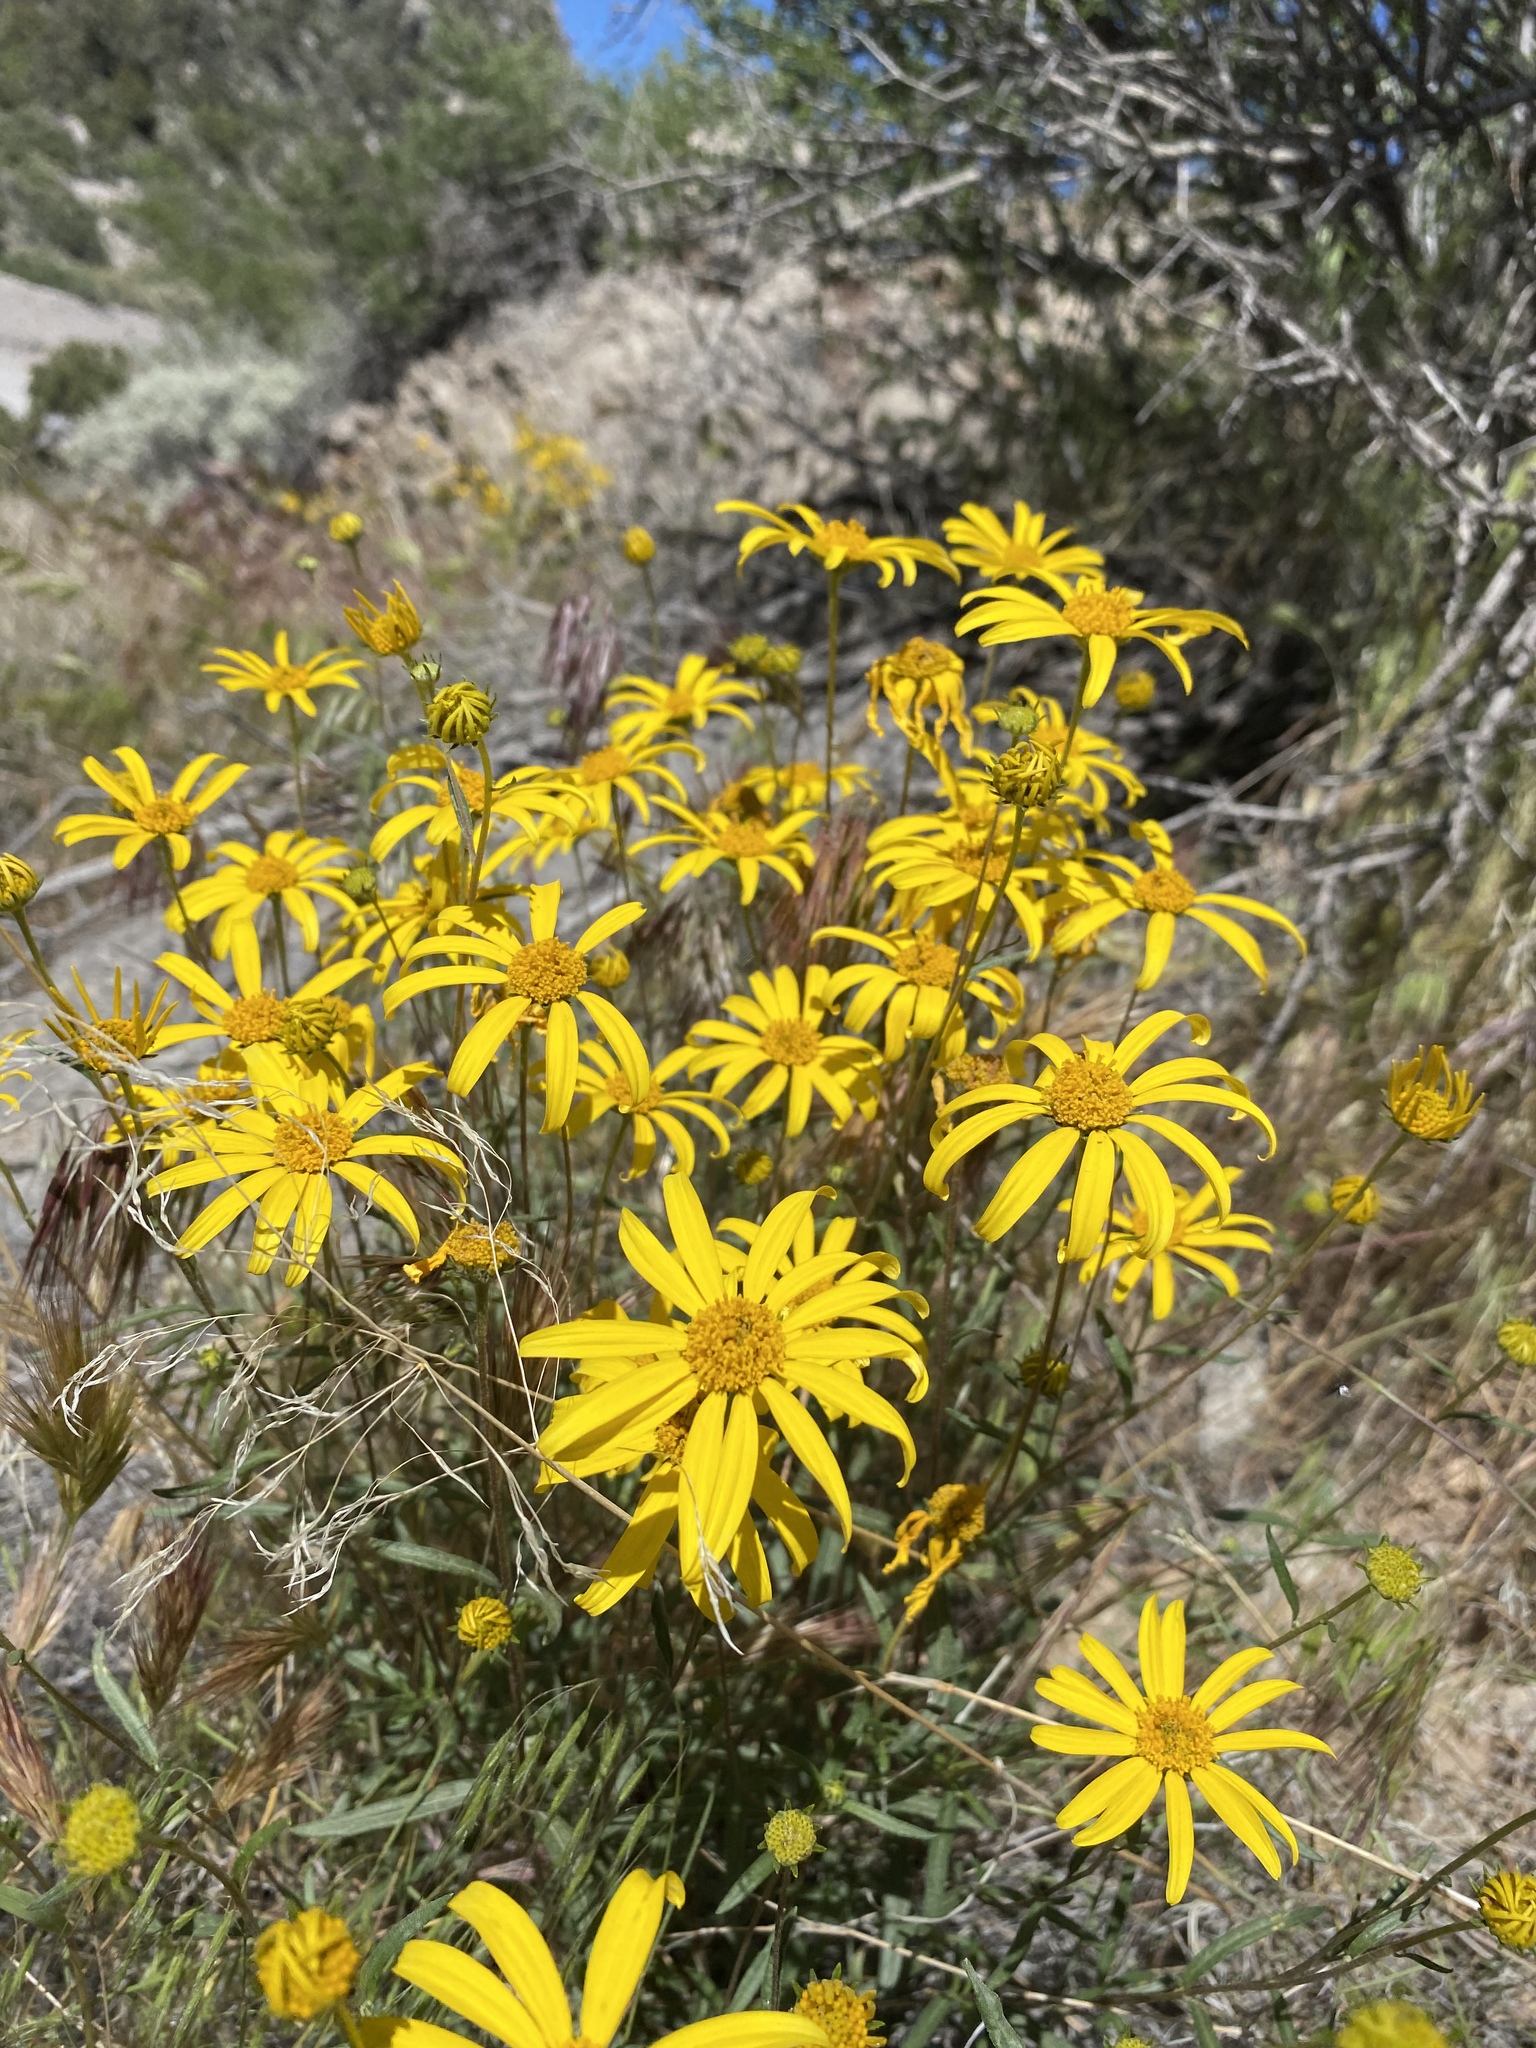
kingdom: Plantae
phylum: Tracheophyta
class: Magnoliopsida
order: Asterales
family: Asteraceae
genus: Heliomeris
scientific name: Heliomeris multiflora
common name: Showy goldeneye
